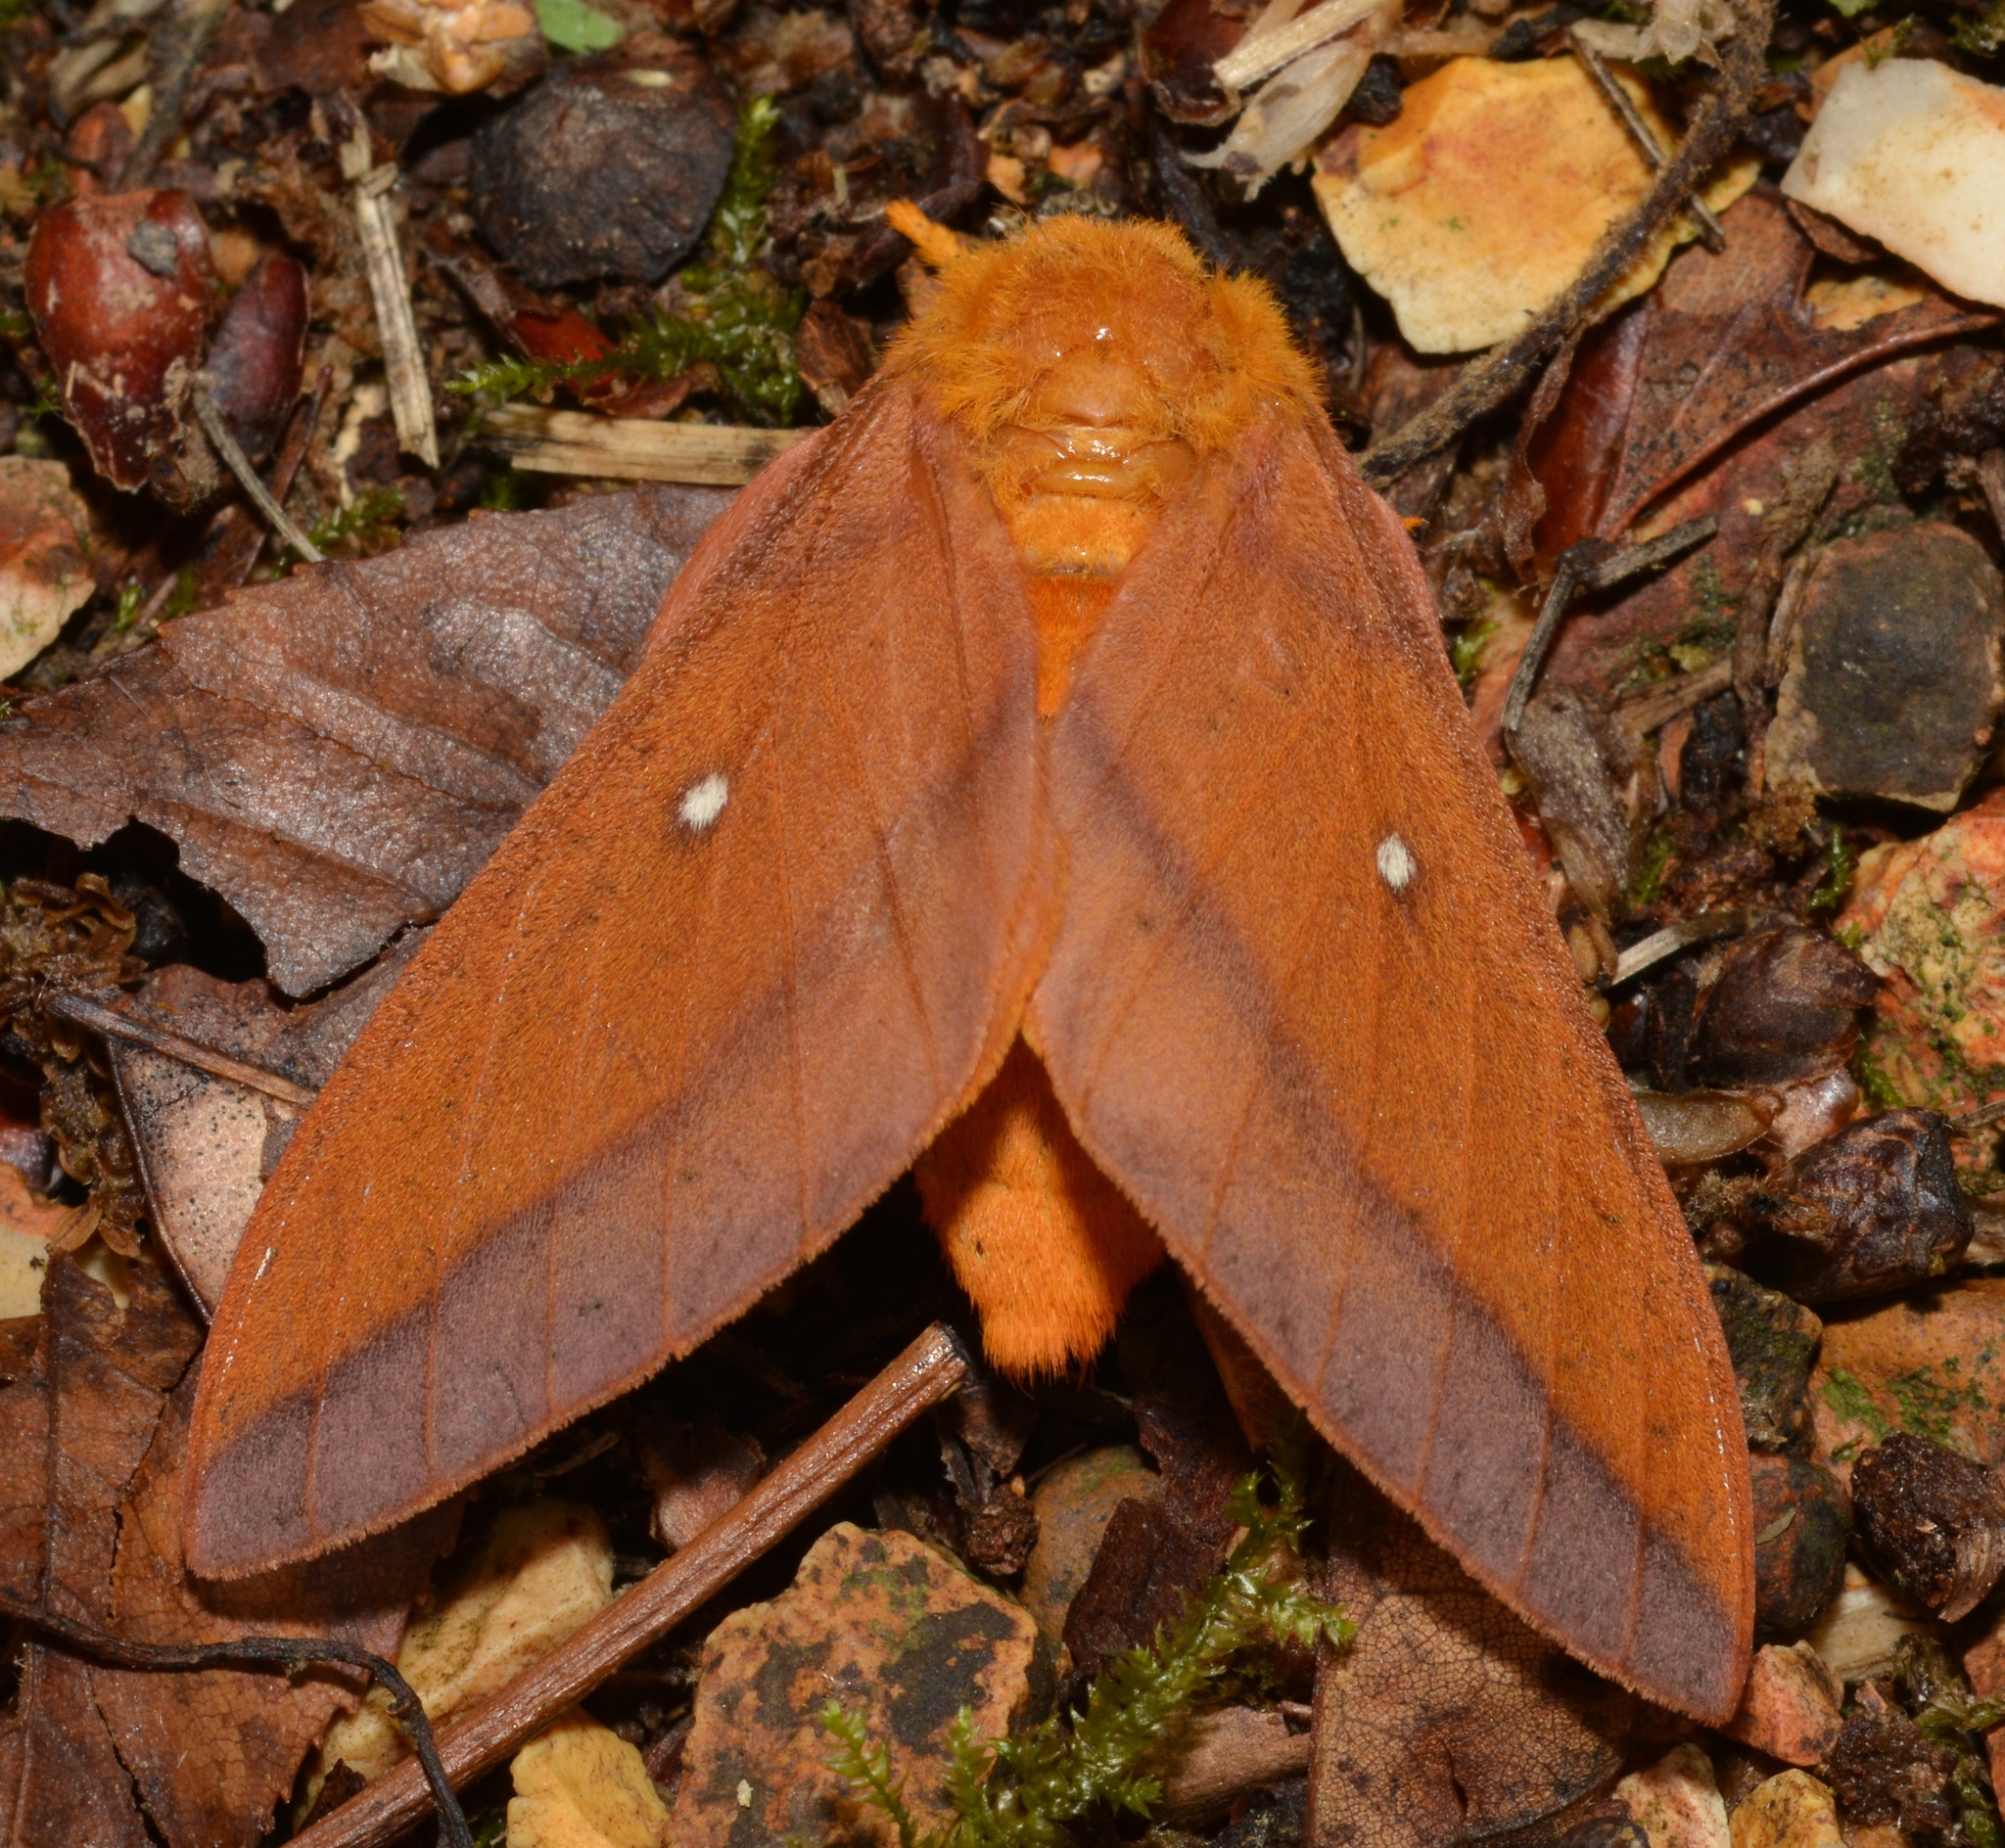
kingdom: Animalia
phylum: Arthropoda
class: Insecta
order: Lepidoptera
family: Saturniidae
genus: Anisota
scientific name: Anisota virginiensis
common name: Pink striped oakworm moth
